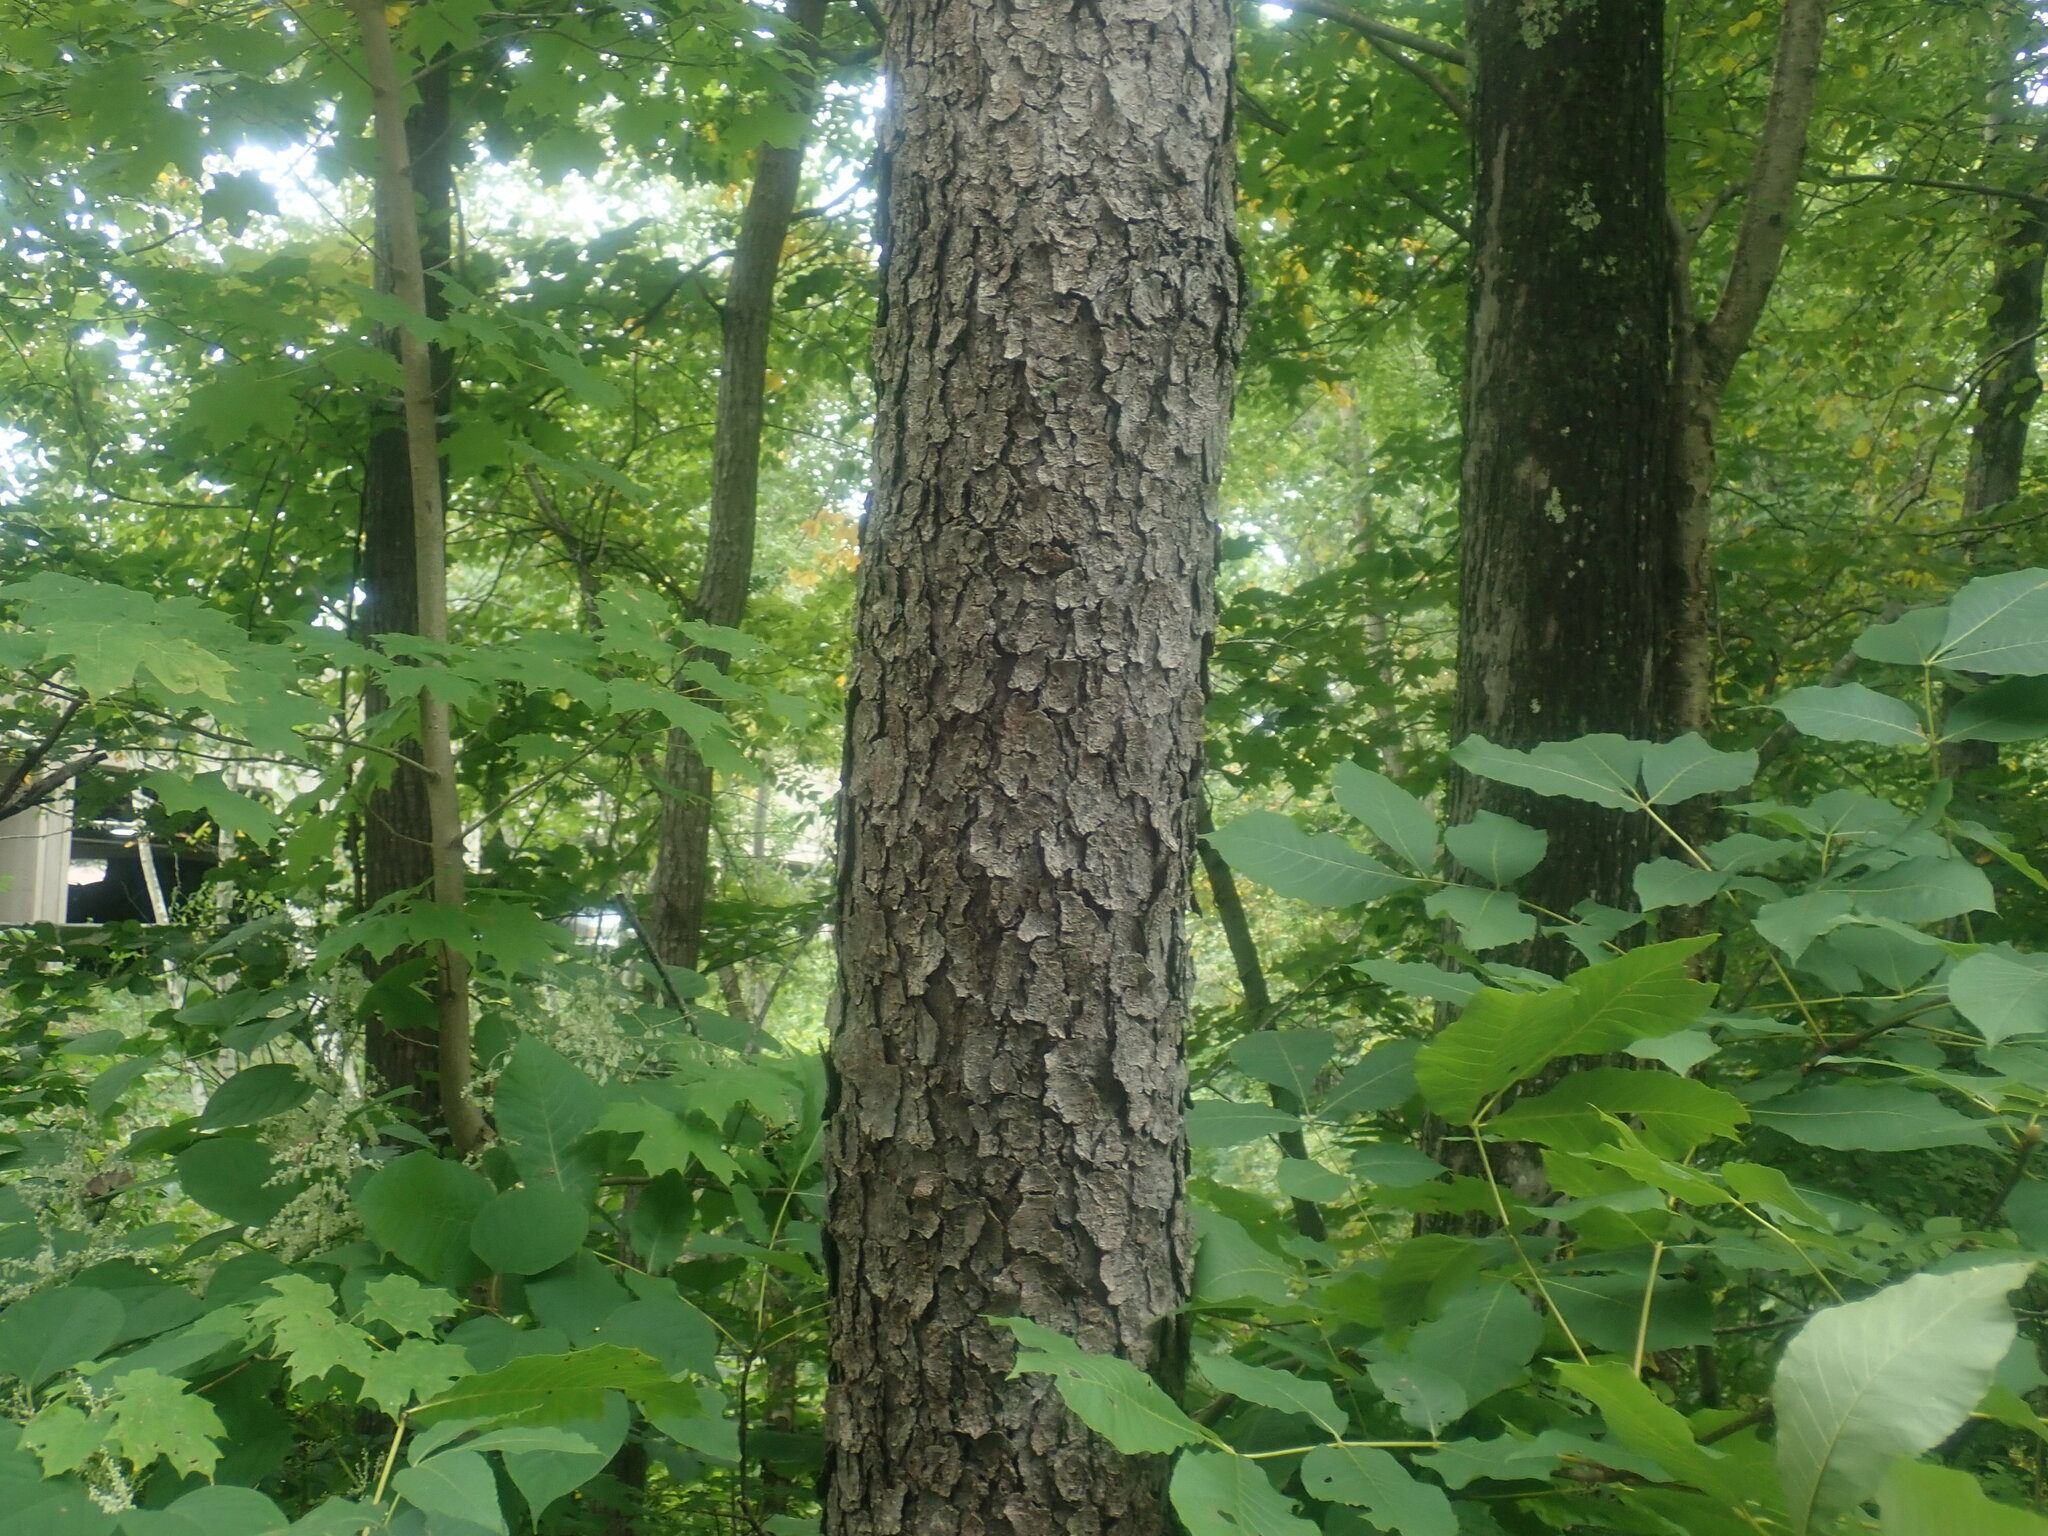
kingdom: Plantae
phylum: Tracheophyta
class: Magnoliopsida
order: Rosales
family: Rosaceae
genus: Prunus
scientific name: Prunus serotina
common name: Black cherry
